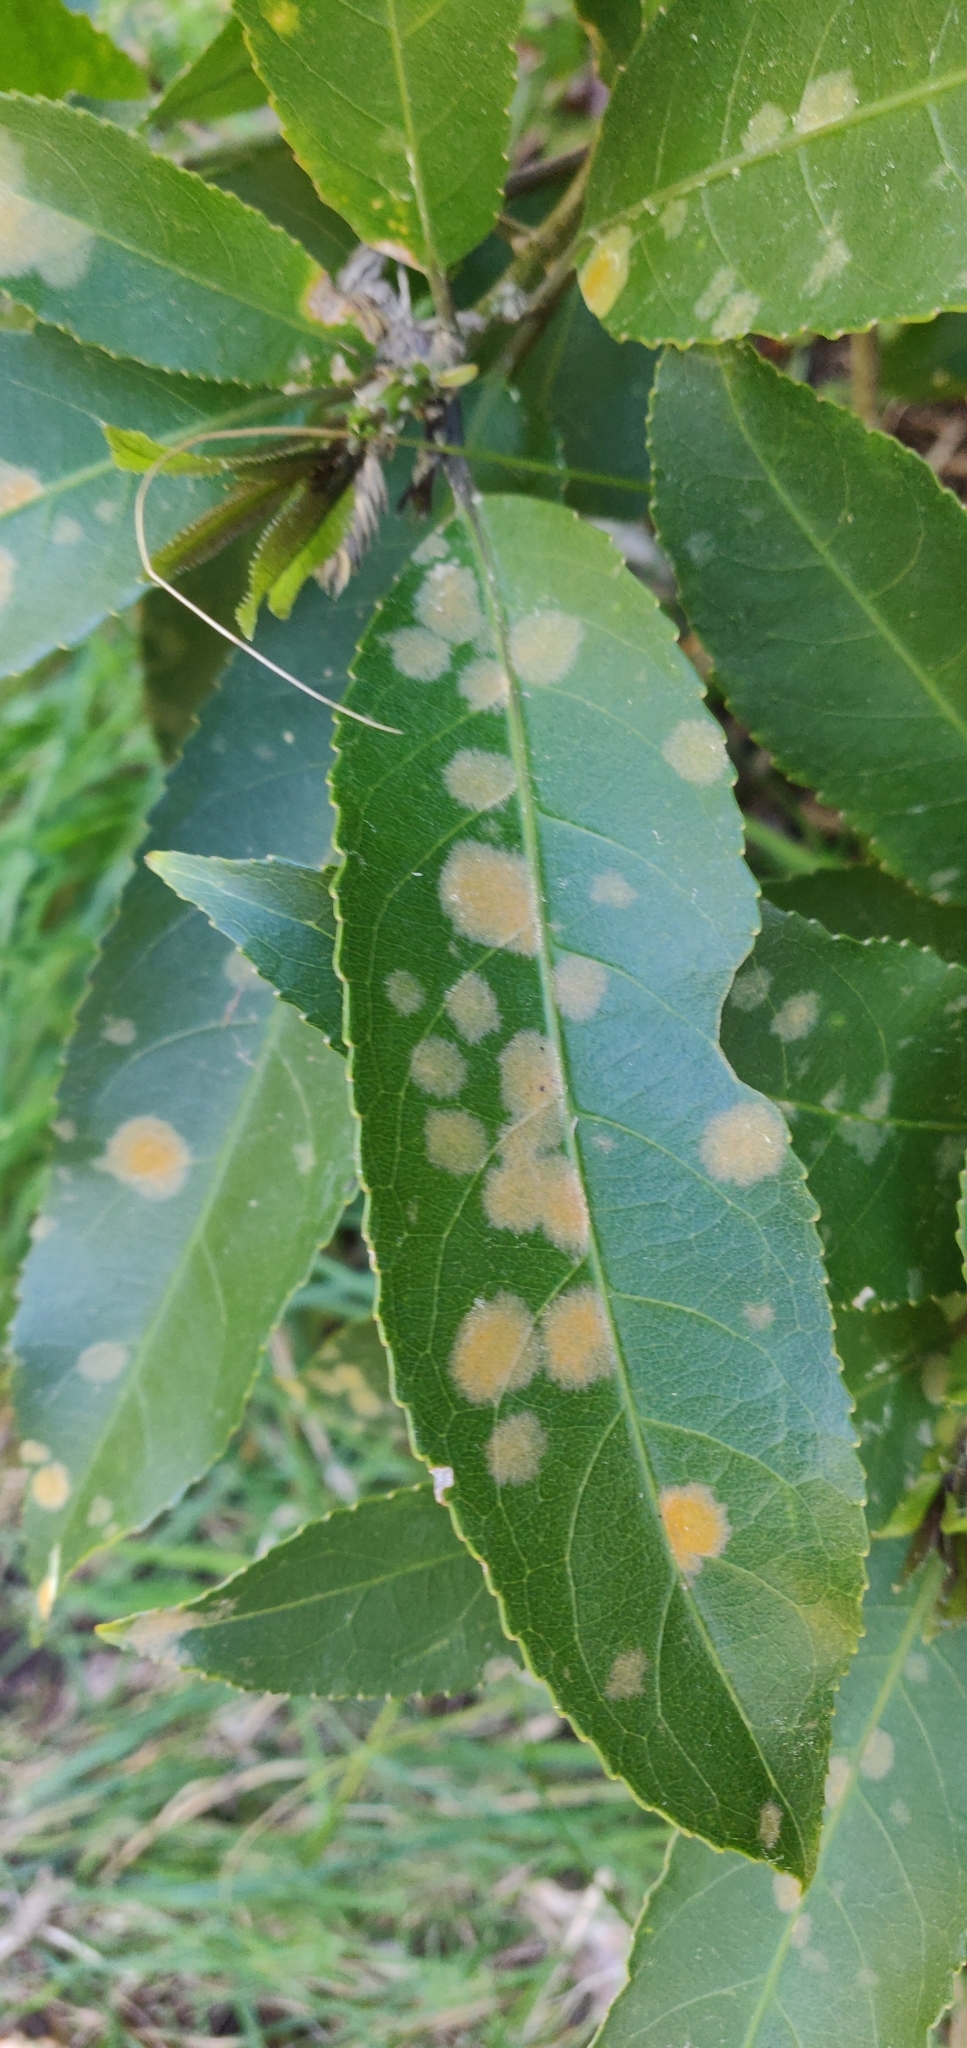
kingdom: Plantae
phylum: Chlorophyta
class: Ulvophyceae
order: Trentepohliales
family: Trentepohliaceae
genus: Cephaleuros
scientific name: Cephaleuros
